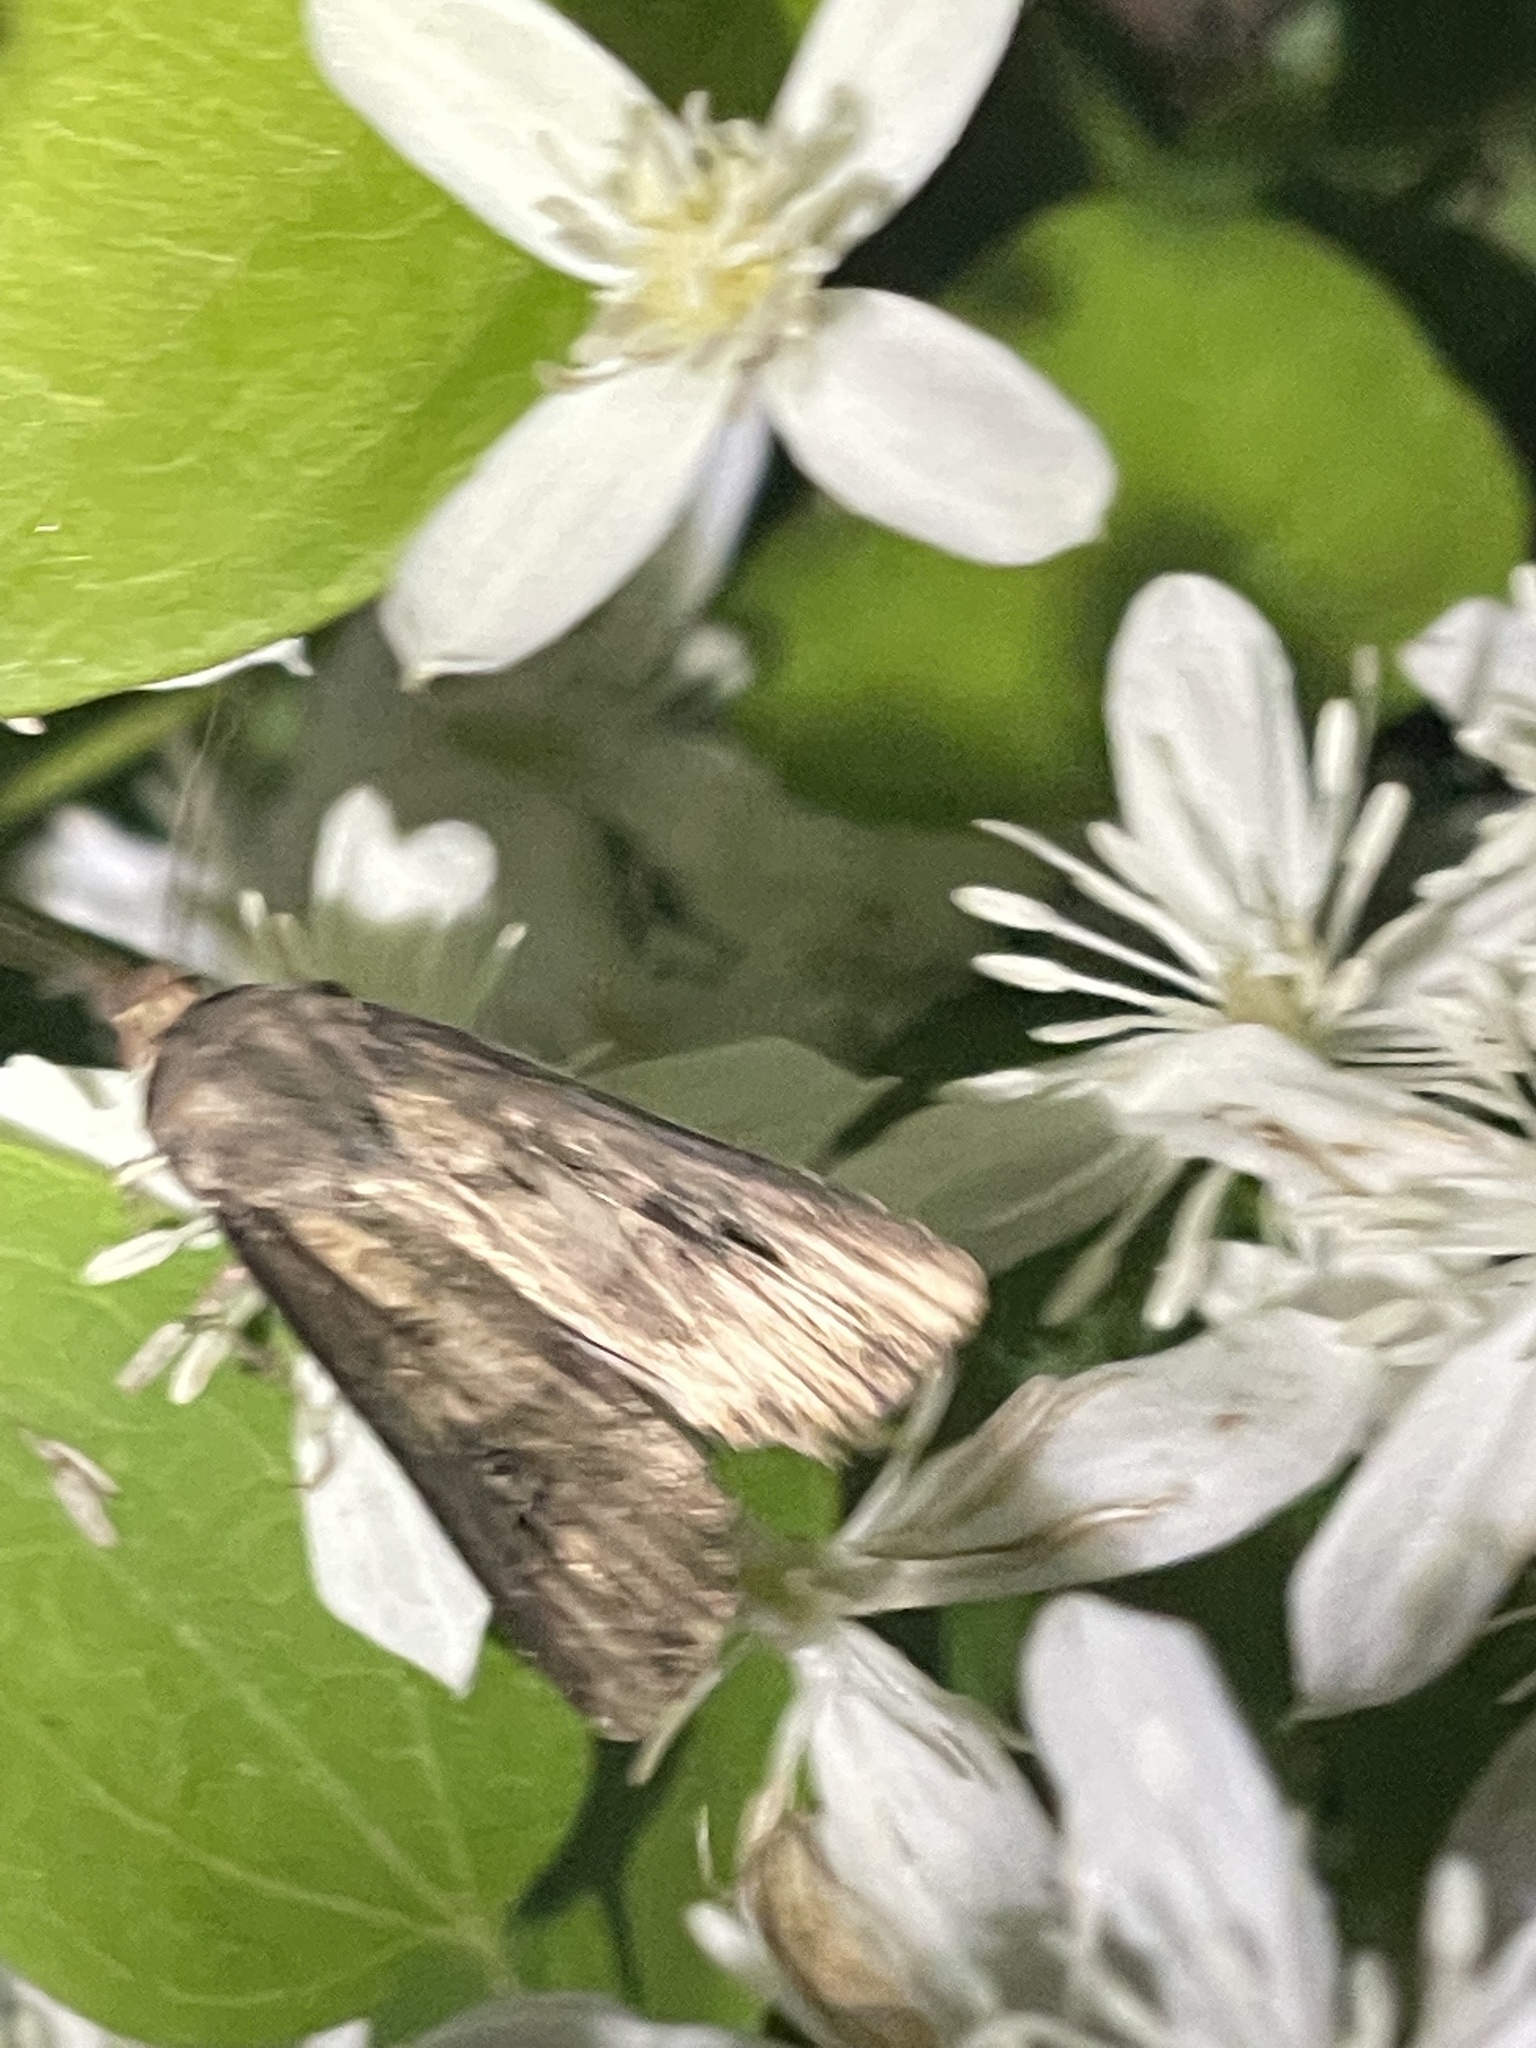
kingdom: Animalia
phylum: Arthropoda
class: Insecta
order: Lepidoptera
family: Noctuidae
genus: Agrotis
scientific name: Agrotis ipsilon
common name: Dark sword-grass
